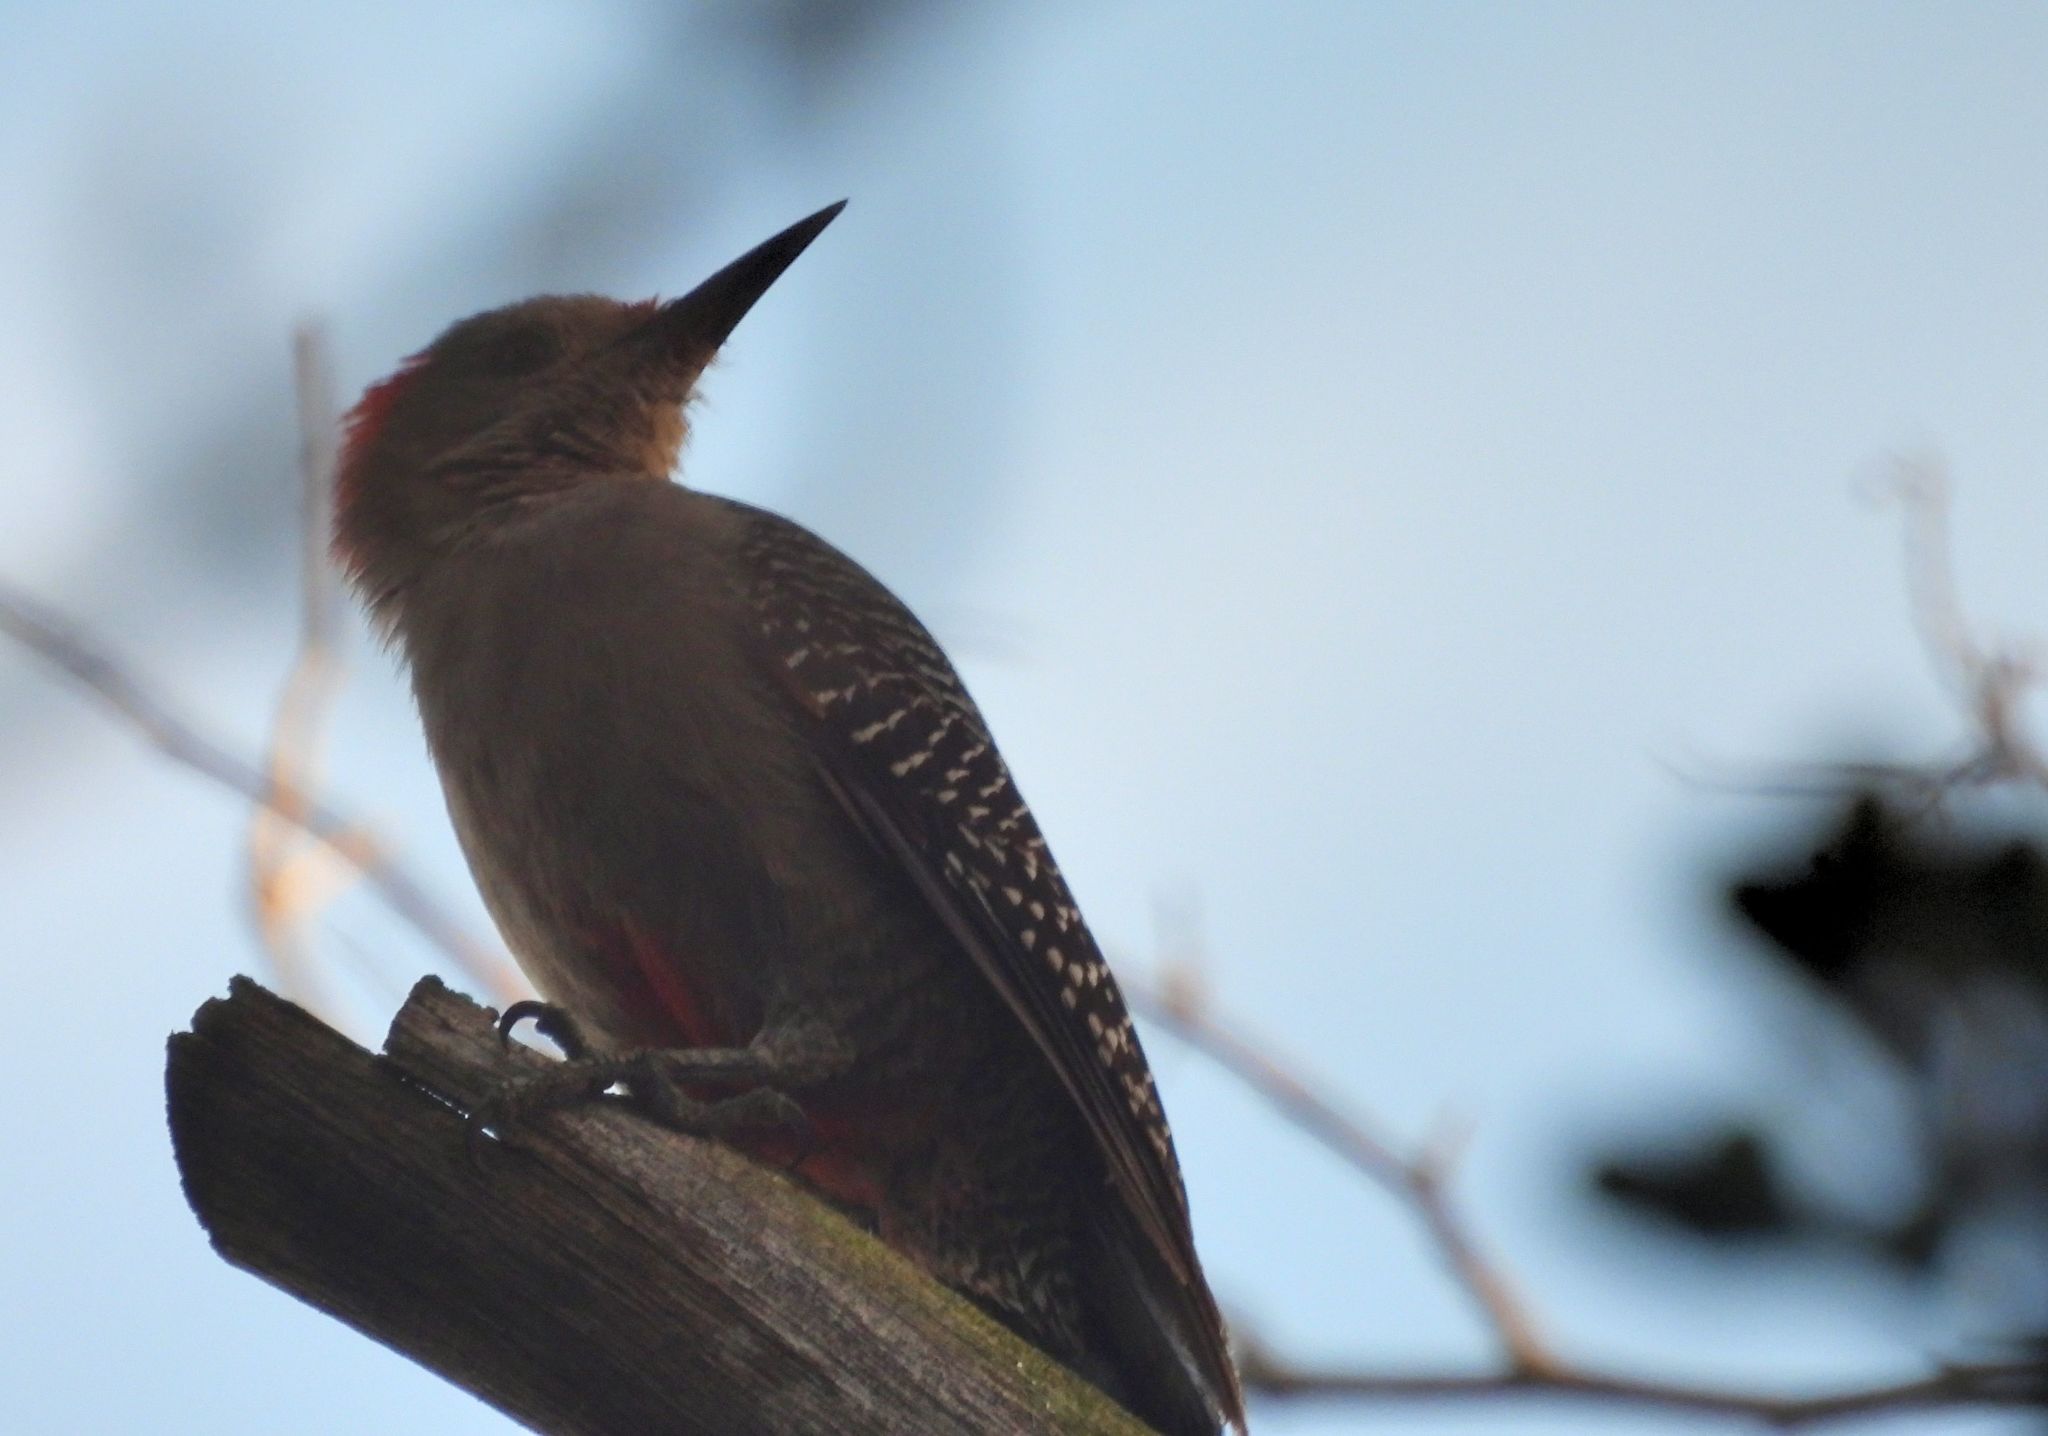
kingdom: Animalia
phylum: Chordata
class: Aves
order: Piciformes
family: Picidae
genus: Melanerpes
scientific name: Melanerpes aurifrons
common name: Golden-fronted woodpecker
